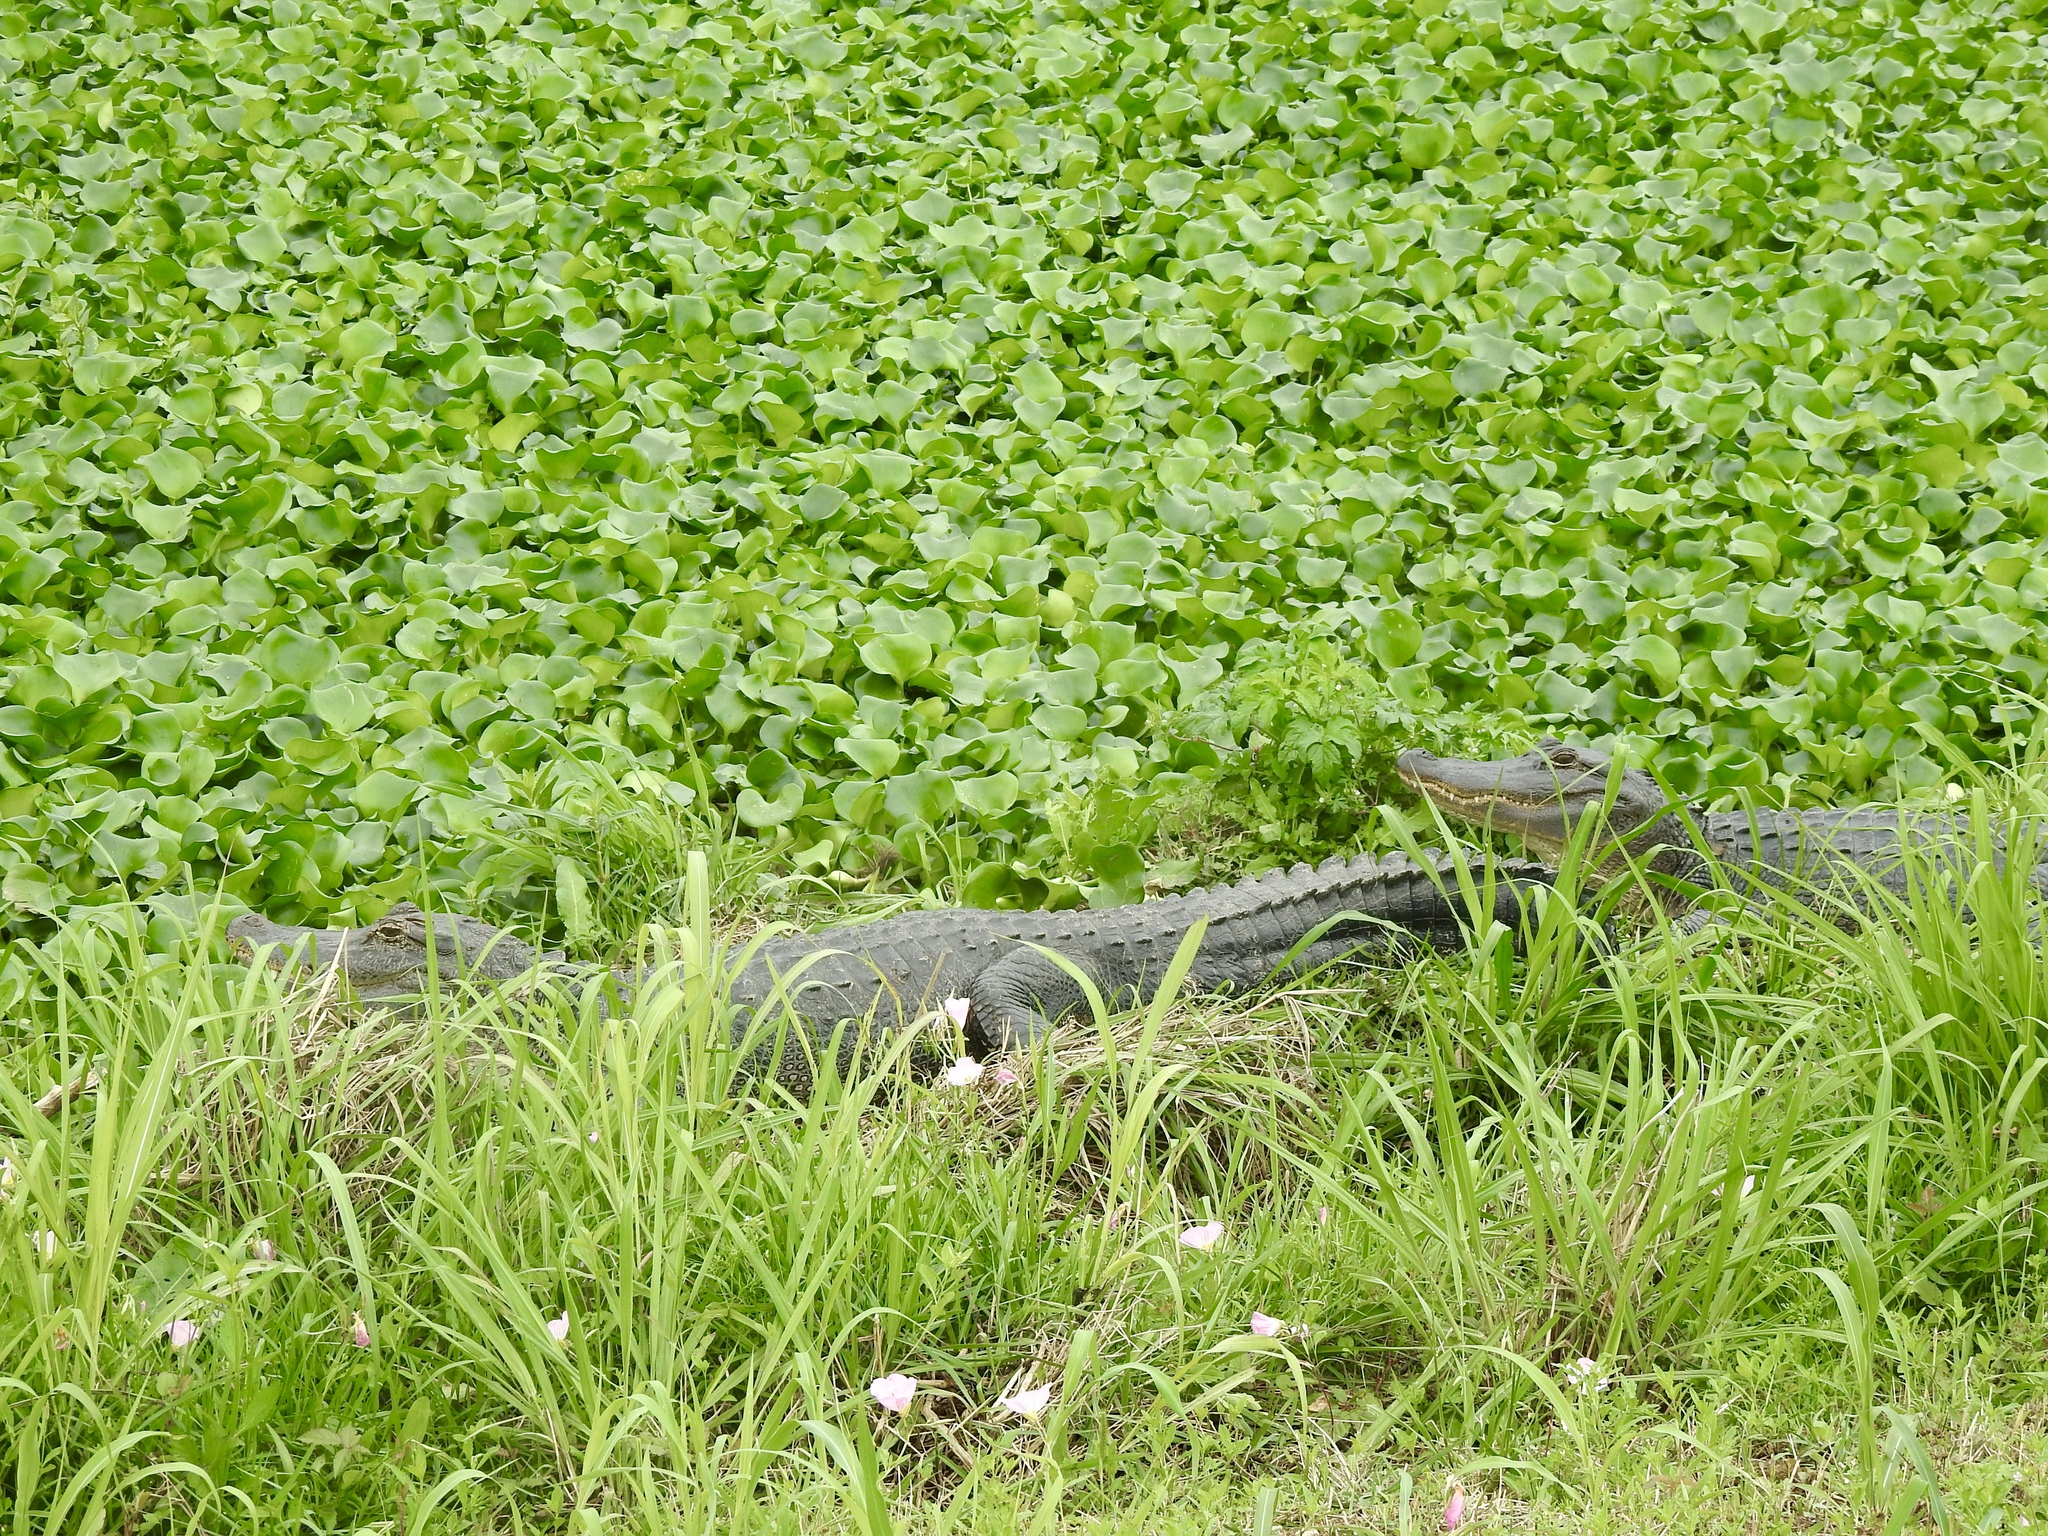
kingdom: Animalia
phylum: Chordata
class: Crocodylia
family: Alligatoridae
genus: Alligator
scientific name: Alligator mississippiensis
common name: American alligator
